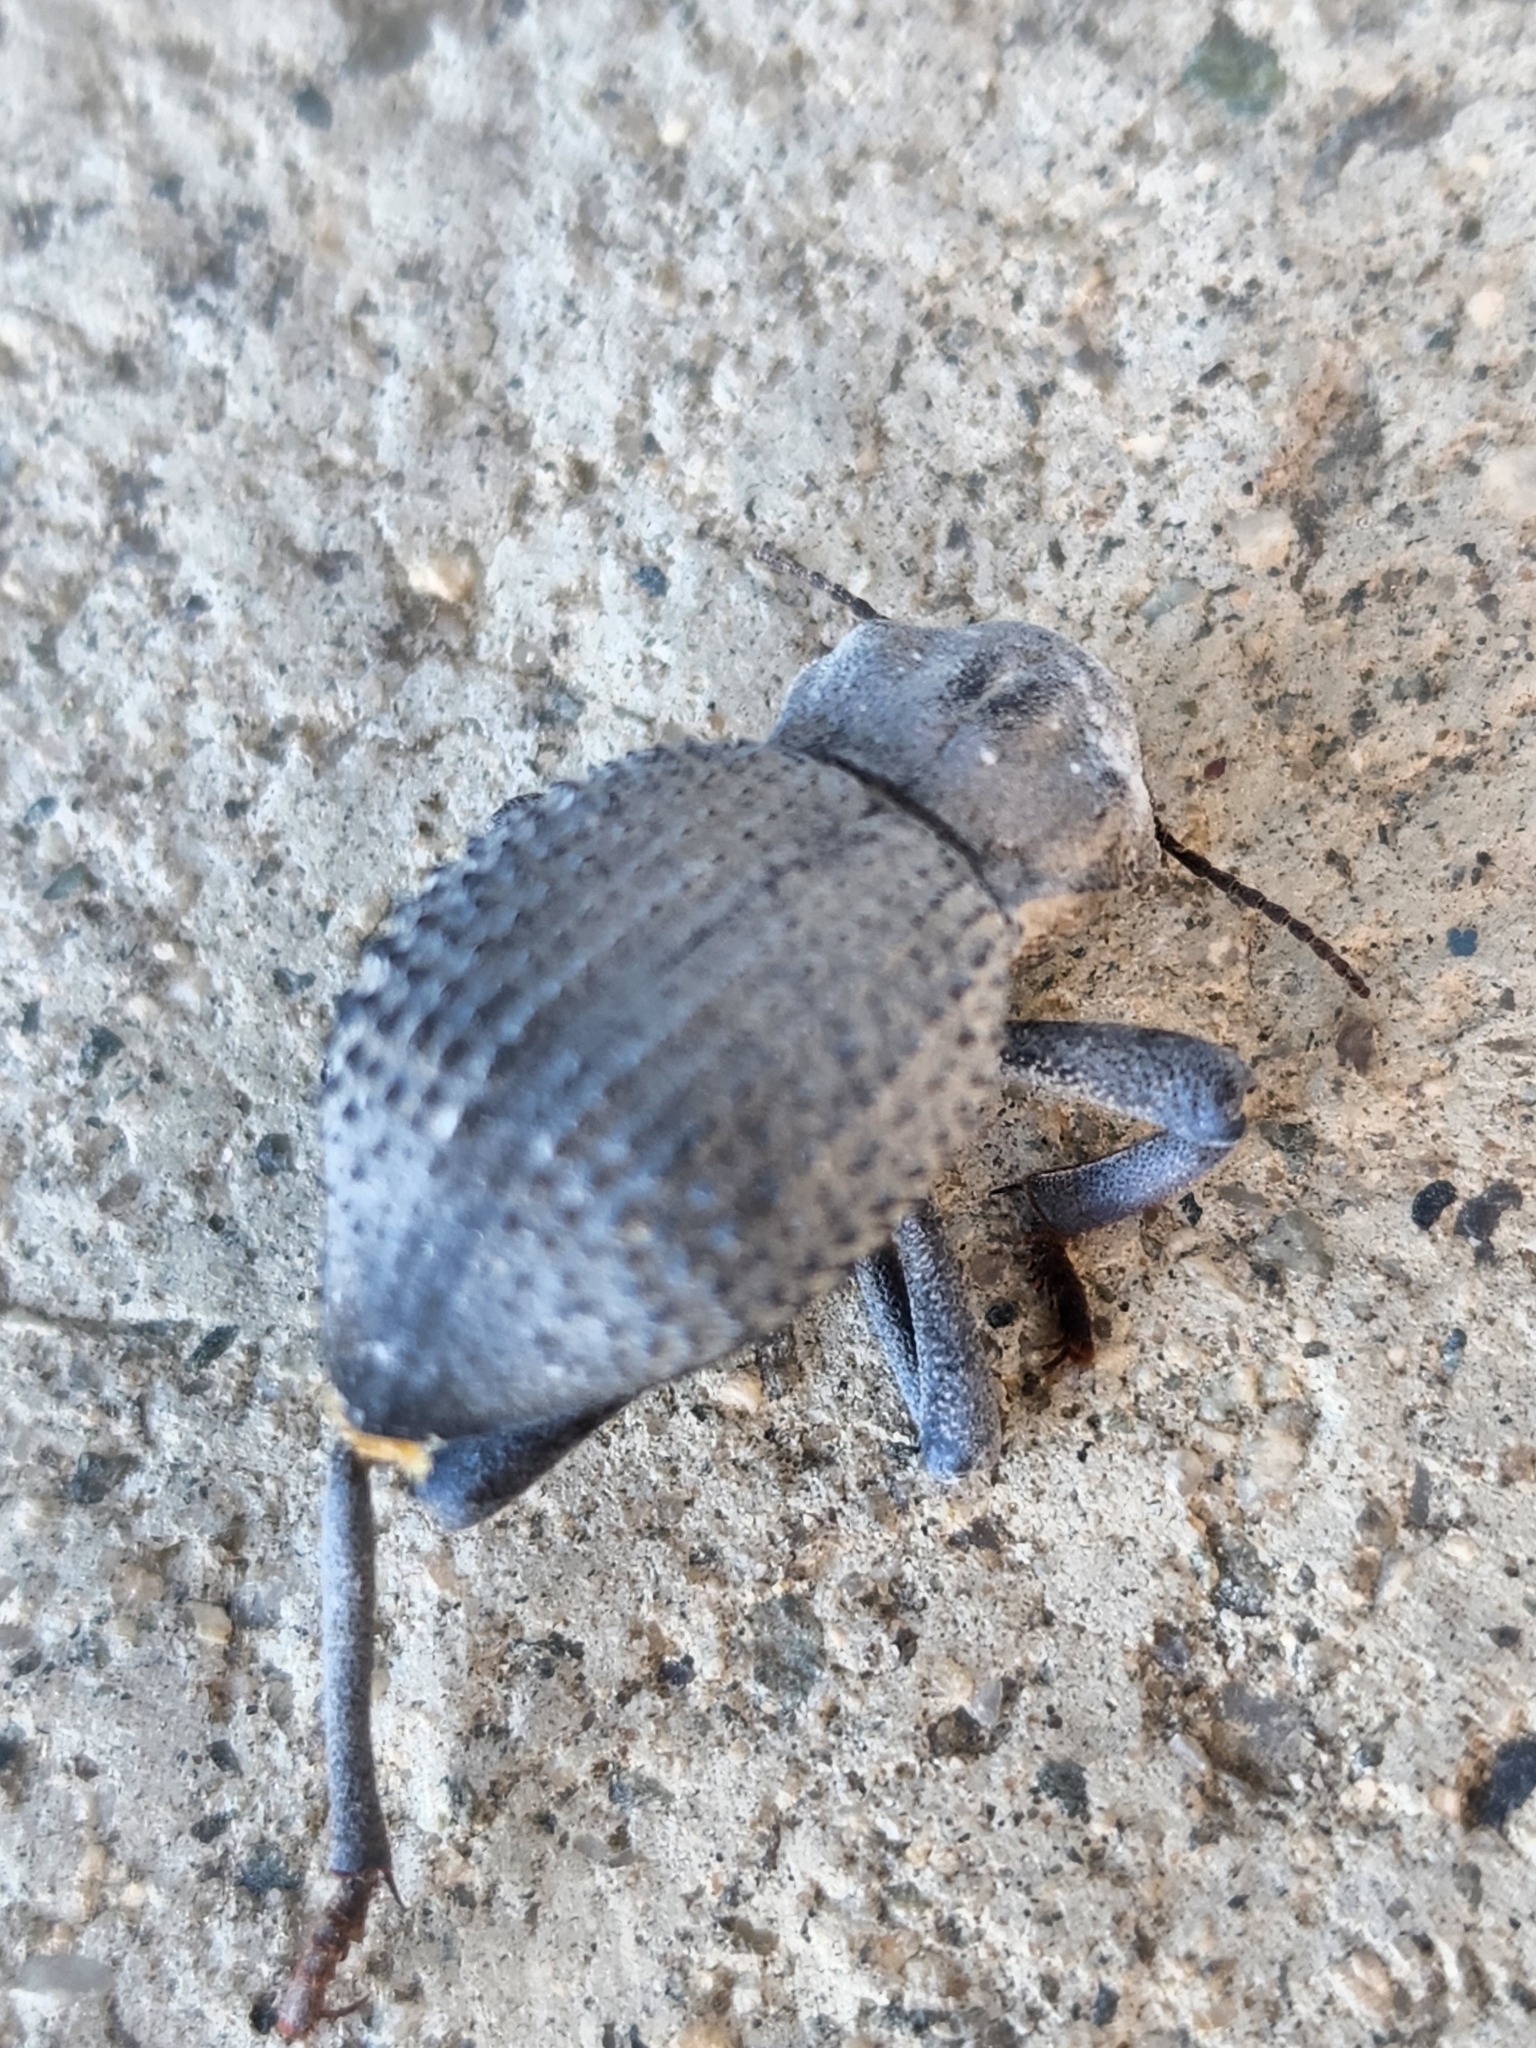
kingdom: Animalia
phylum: Arthropoda
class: Insecta
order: Coleoptera
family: Tenebrionidae
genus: Asbolus
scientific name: Asbolus verrucosus
